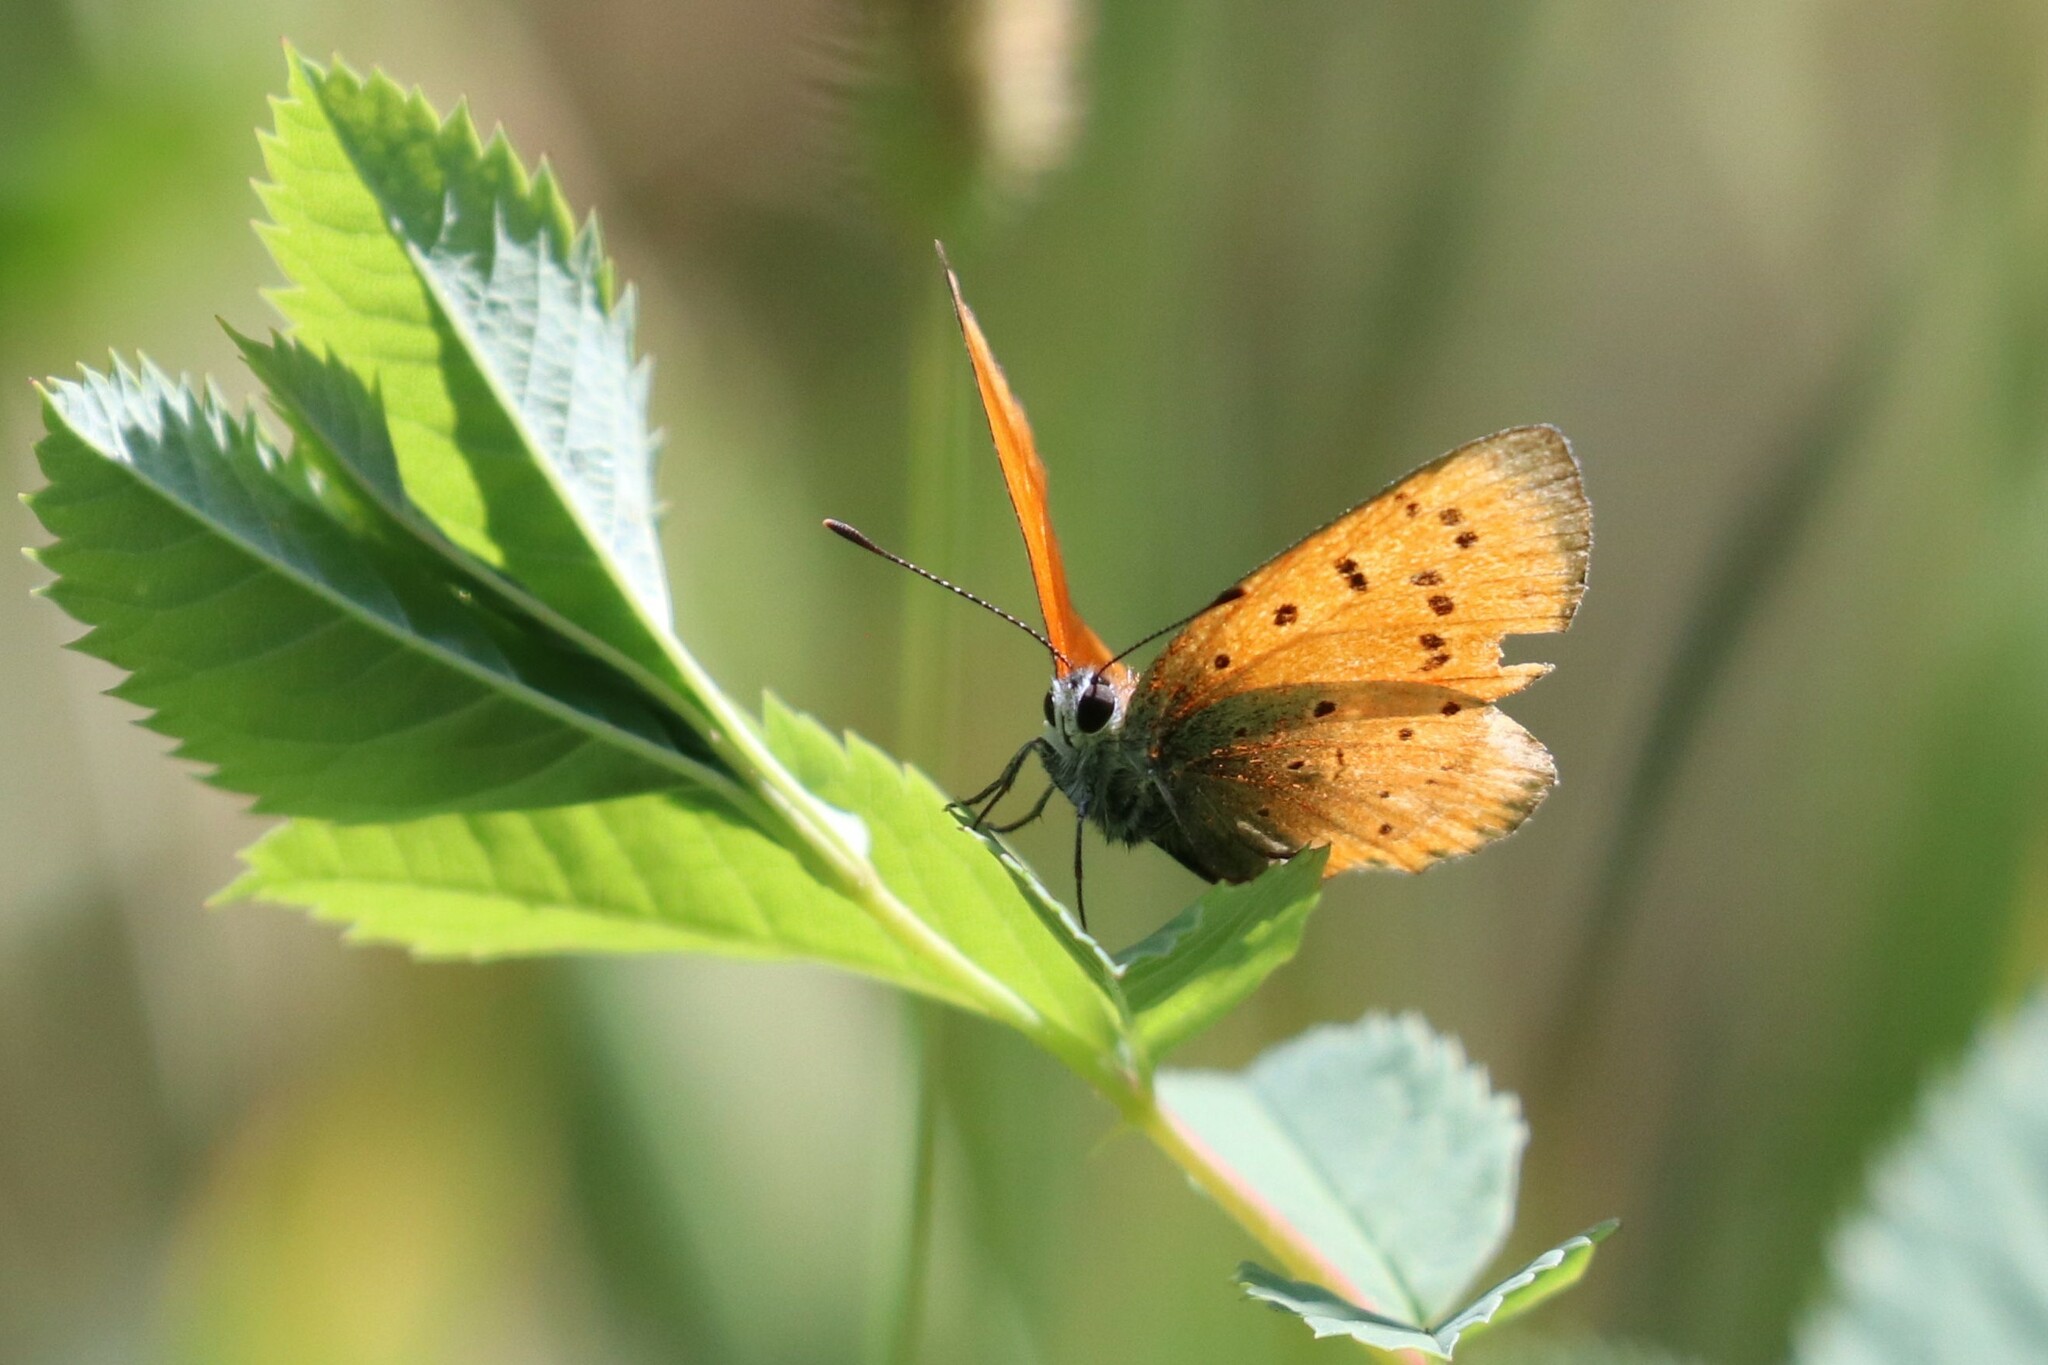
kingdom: Animalia
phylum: Arthropoda
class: Insecta
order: Lepidoptera
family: Lycaenidae
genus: Lycaena
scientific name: Lycaena virgaureae
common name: Scarce copper
